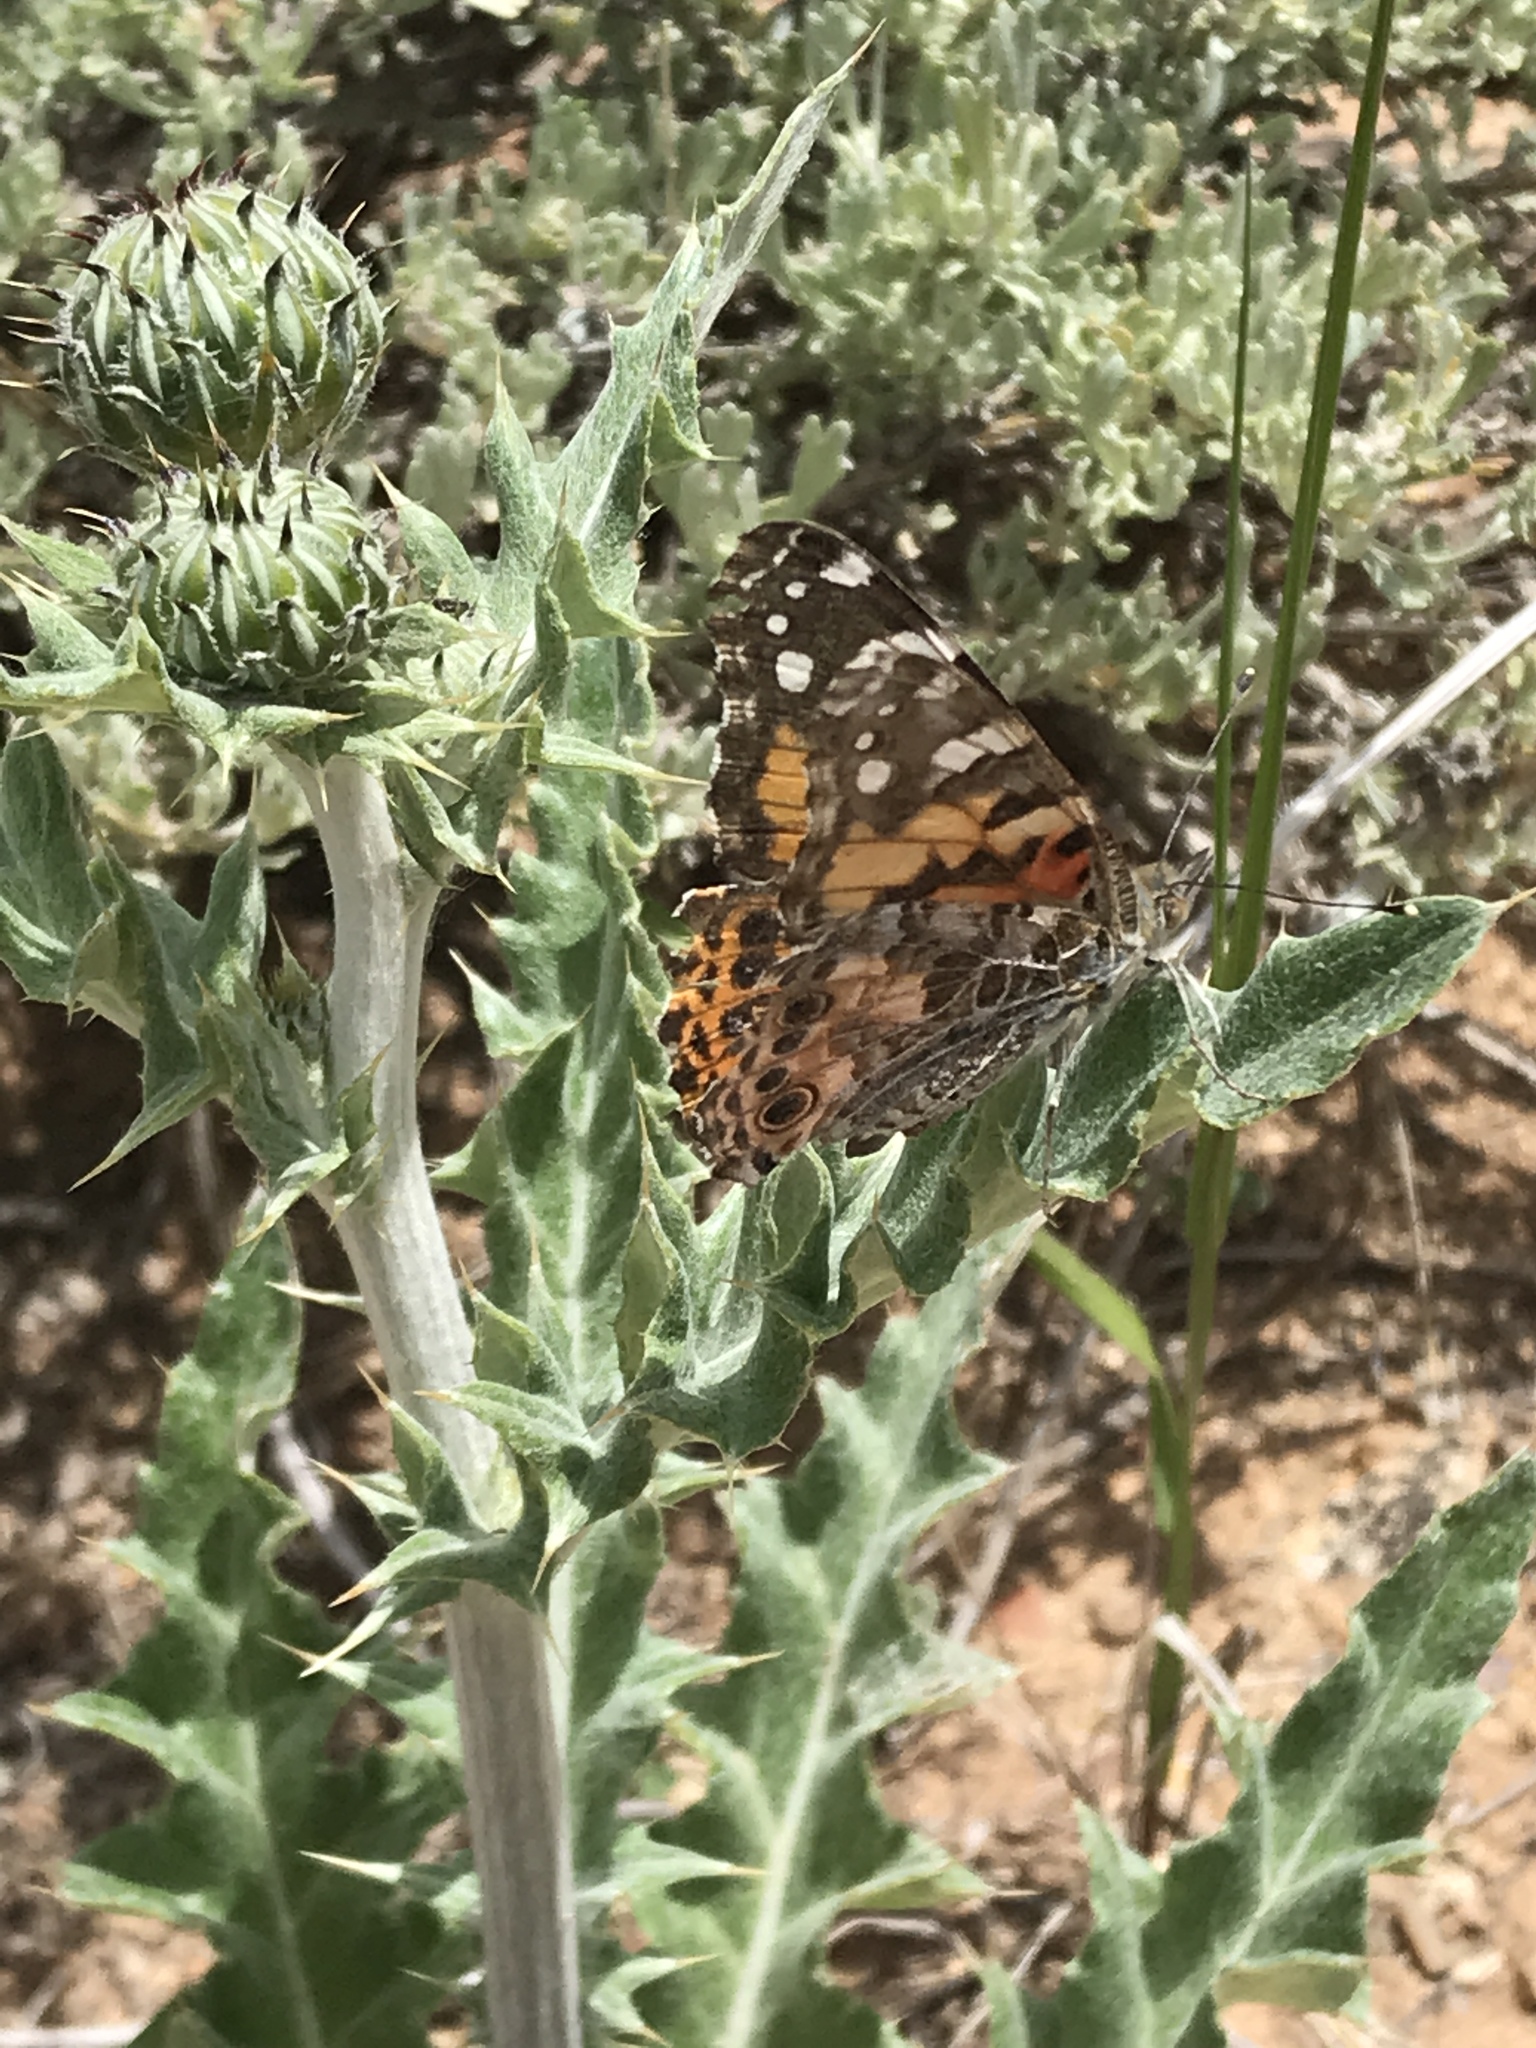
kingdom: Animalia
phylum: Arthropoda
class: Insecta
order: Lepidoptera
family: Nymphalidae
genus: Vanessa
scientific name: Vanessa cardui
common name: Painted lady
